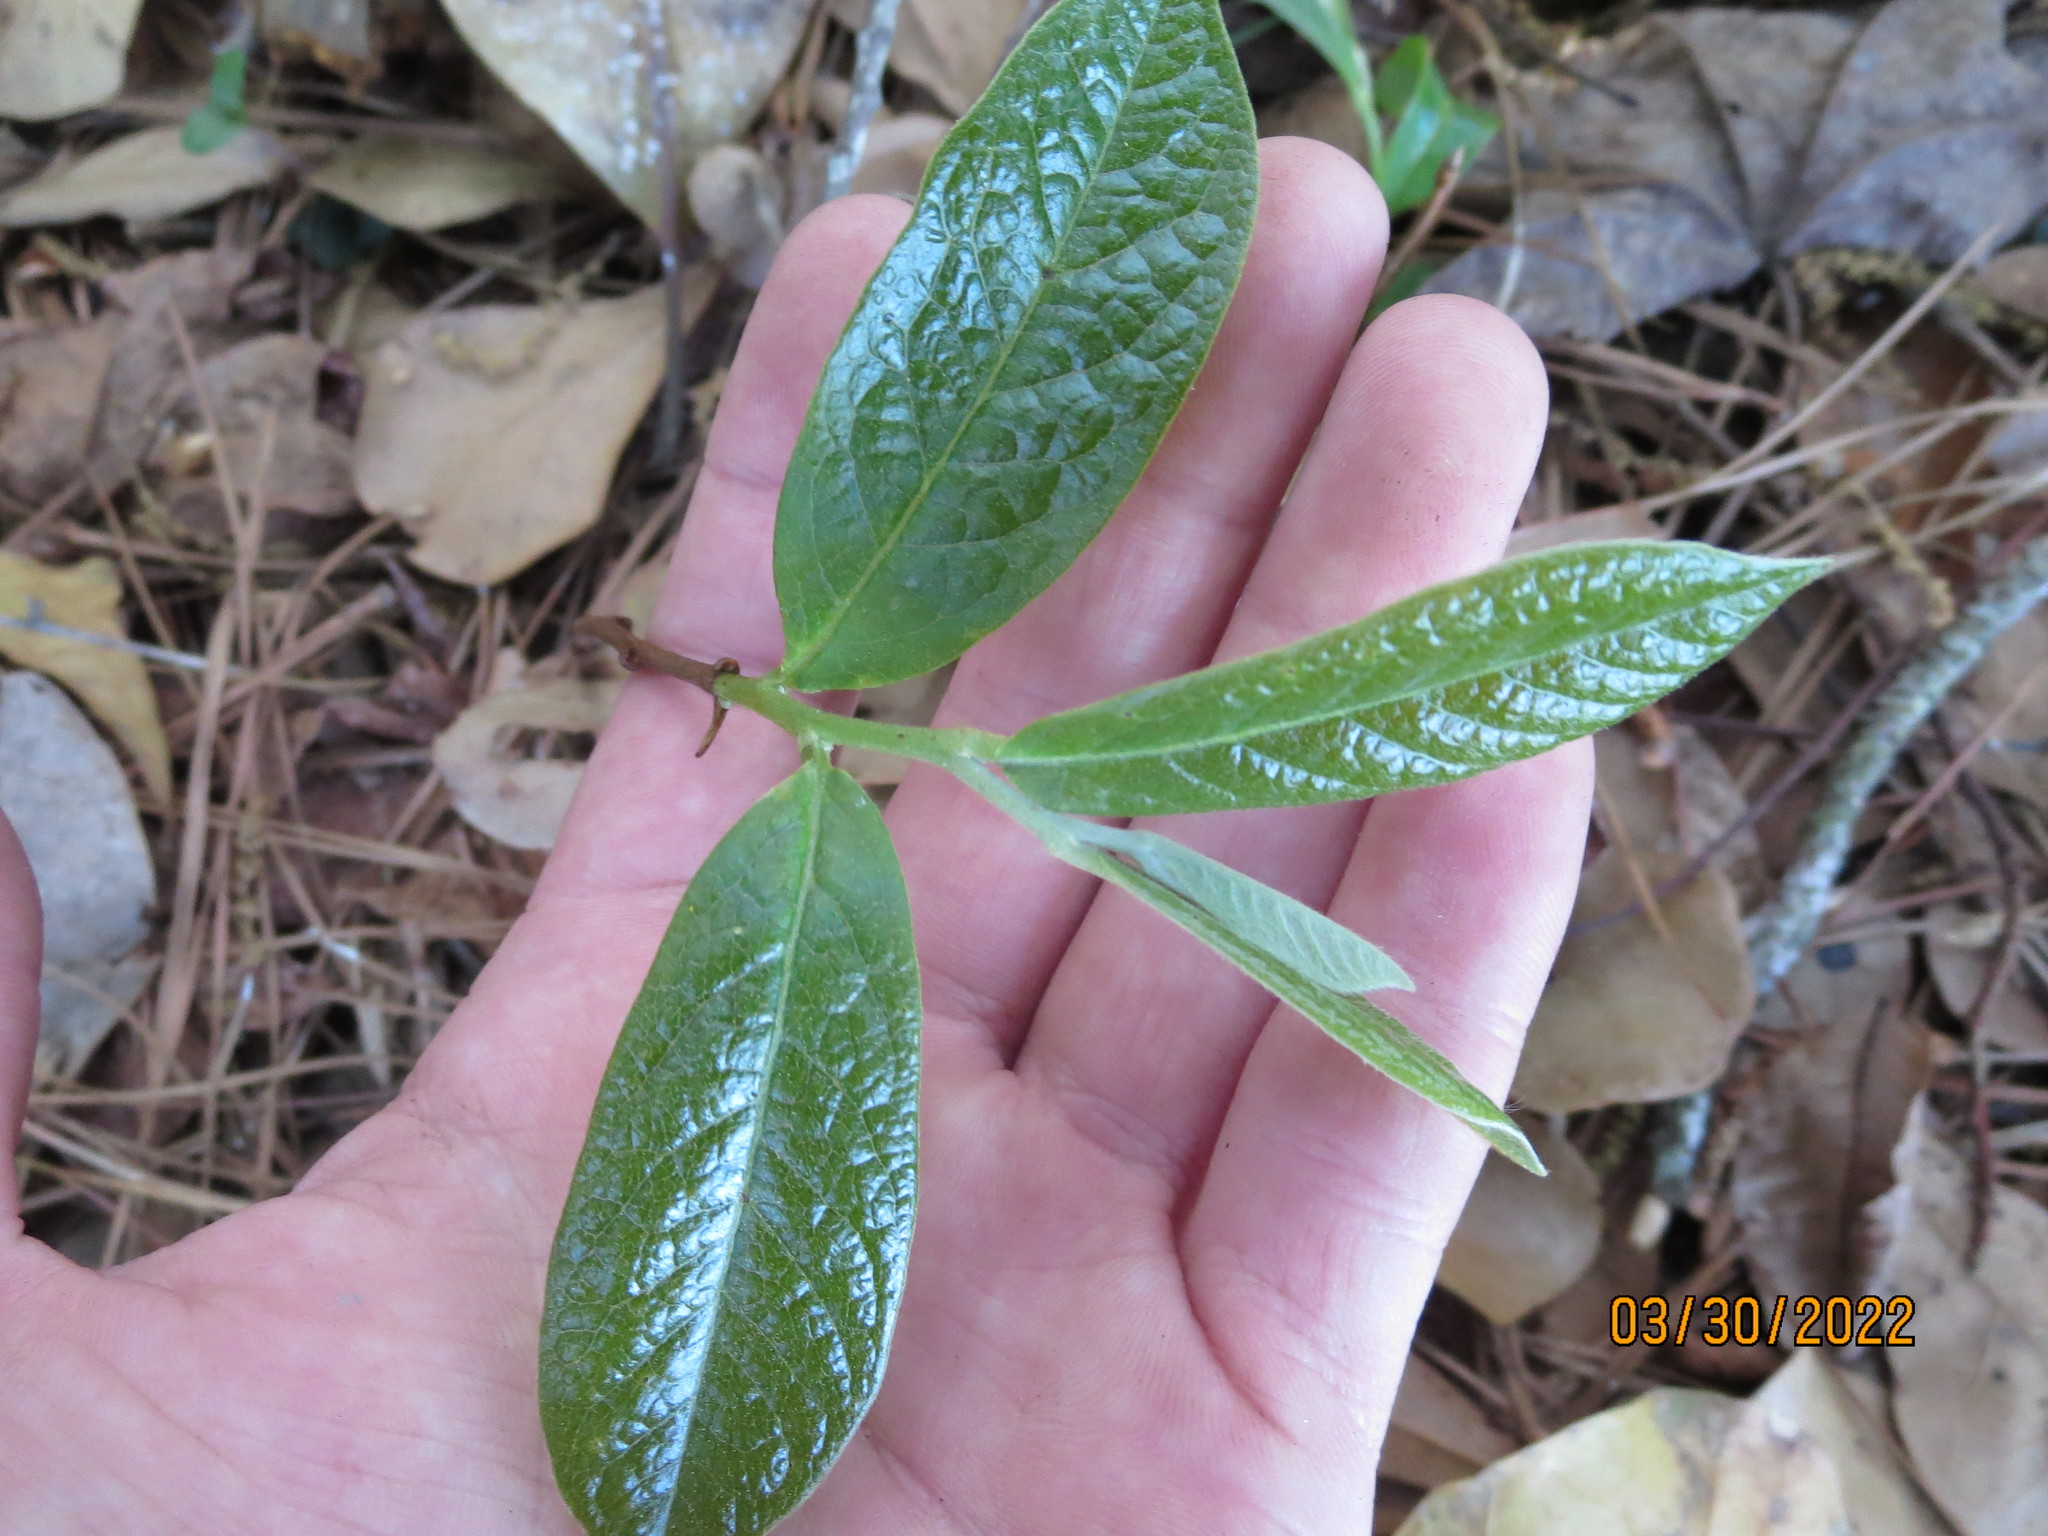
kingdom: Plantae
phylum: Tracheophyta
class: Magnoliopsida
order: Magnoliales
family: Annonaceae
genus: Asimina
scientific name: Asimina parviflora
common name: Dwarf pawpaw
